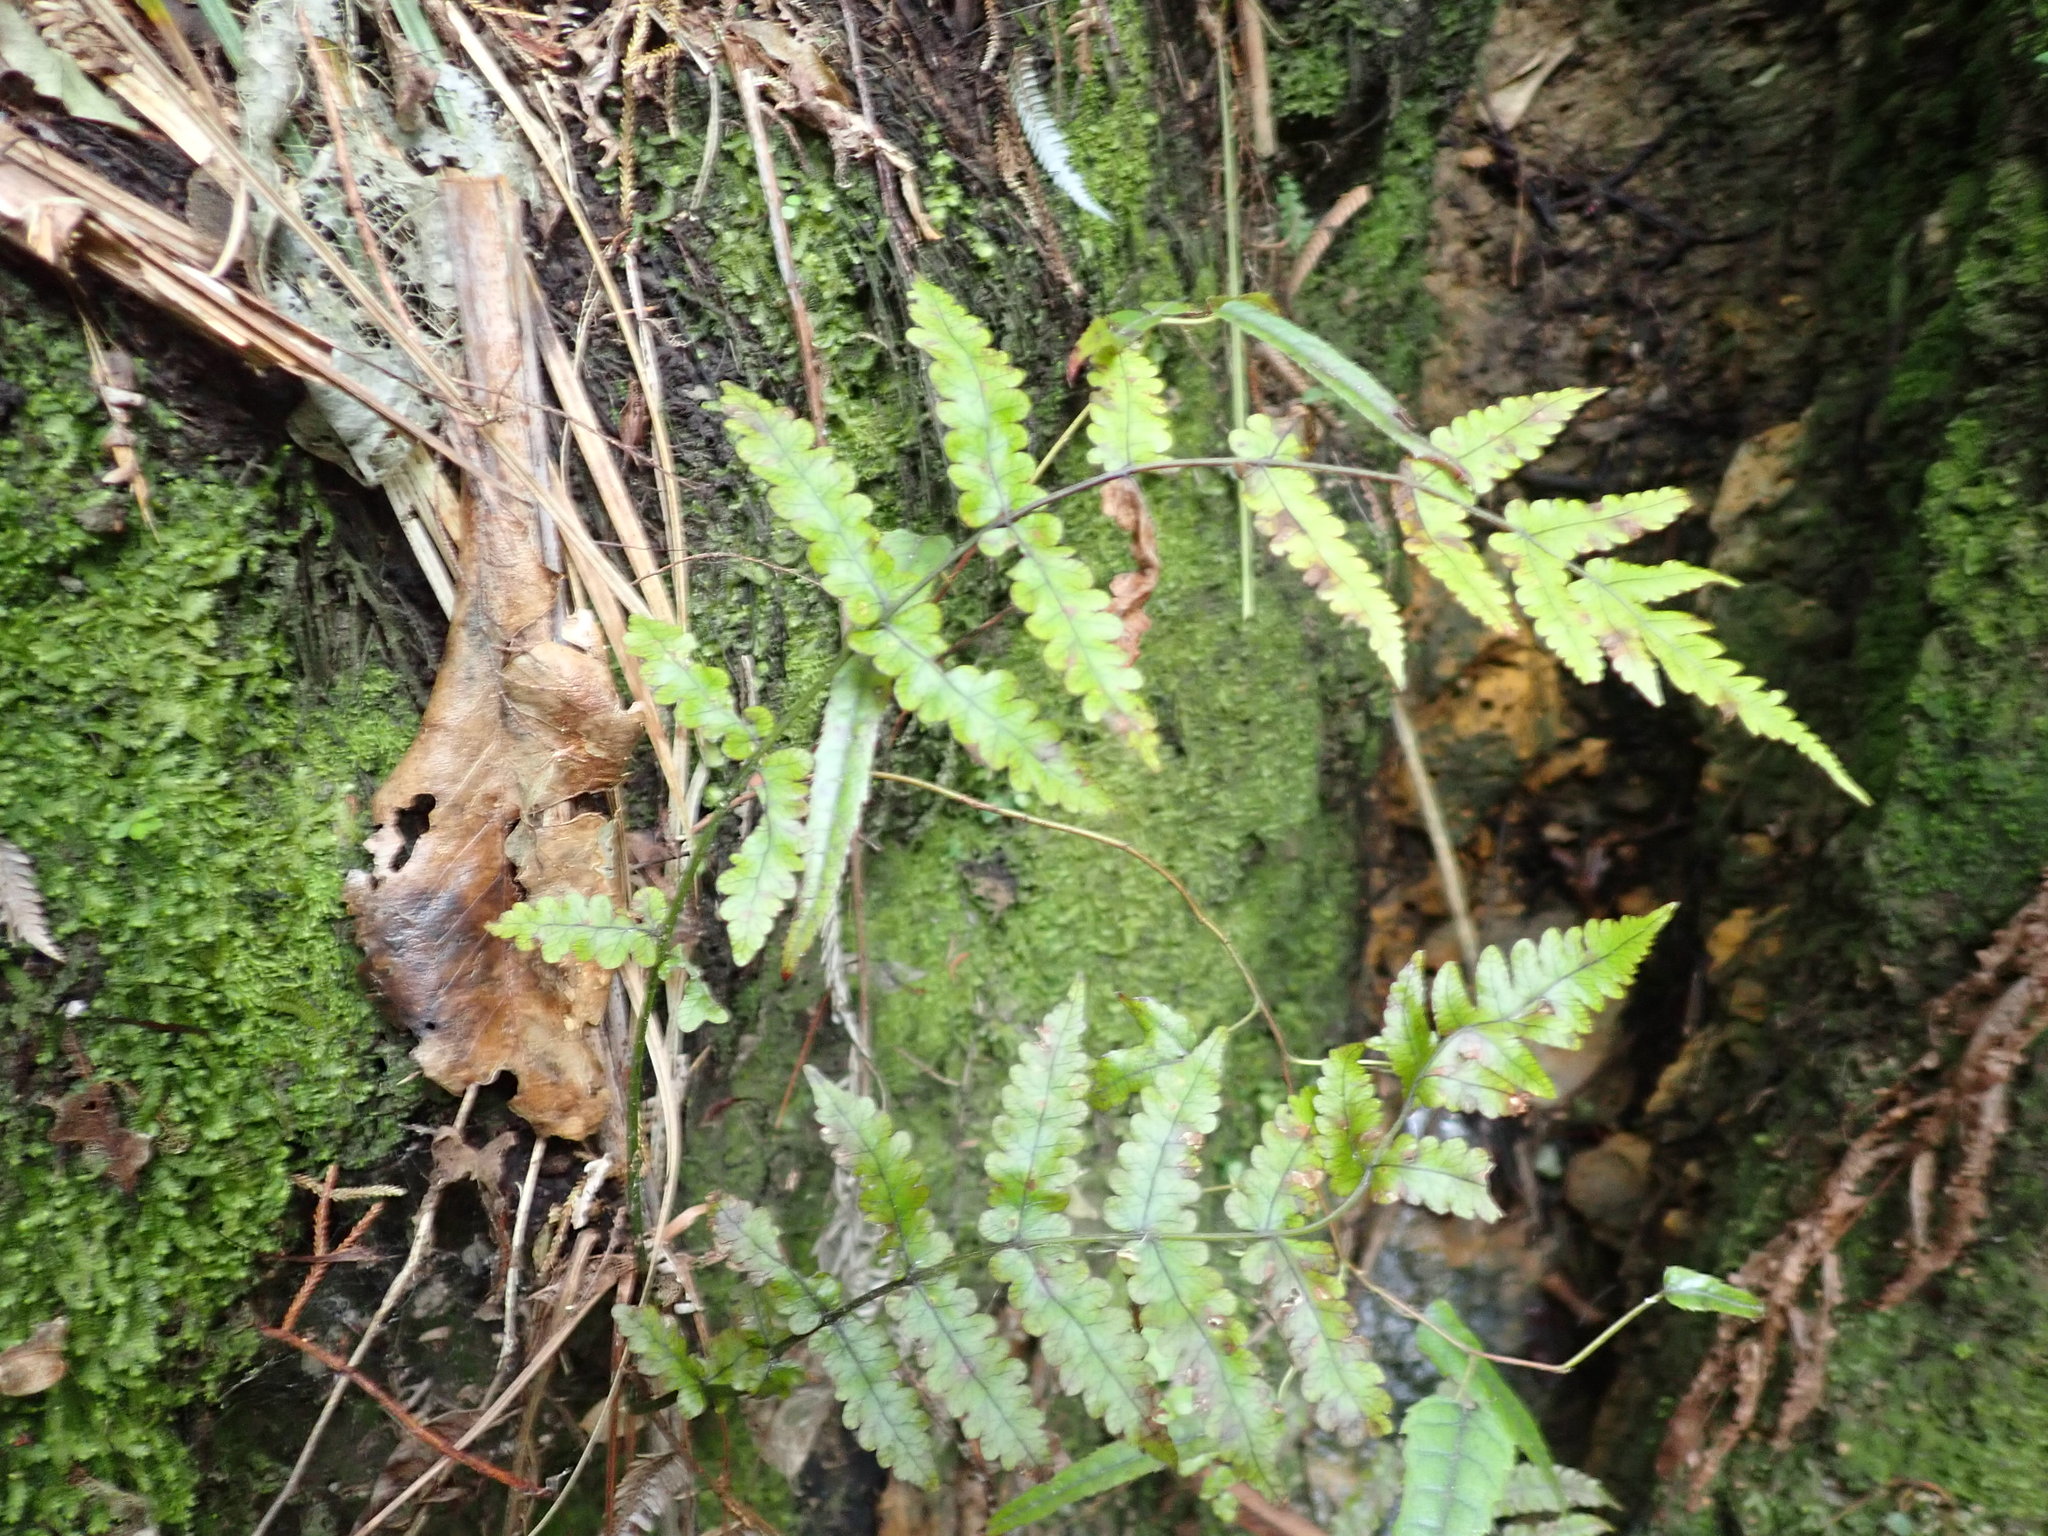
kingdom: Plantae
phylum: Tracheophyta
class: Magnoliopsida
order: Rosales
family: Rosaceae
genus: Rubus
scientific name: Rubus cissoides
